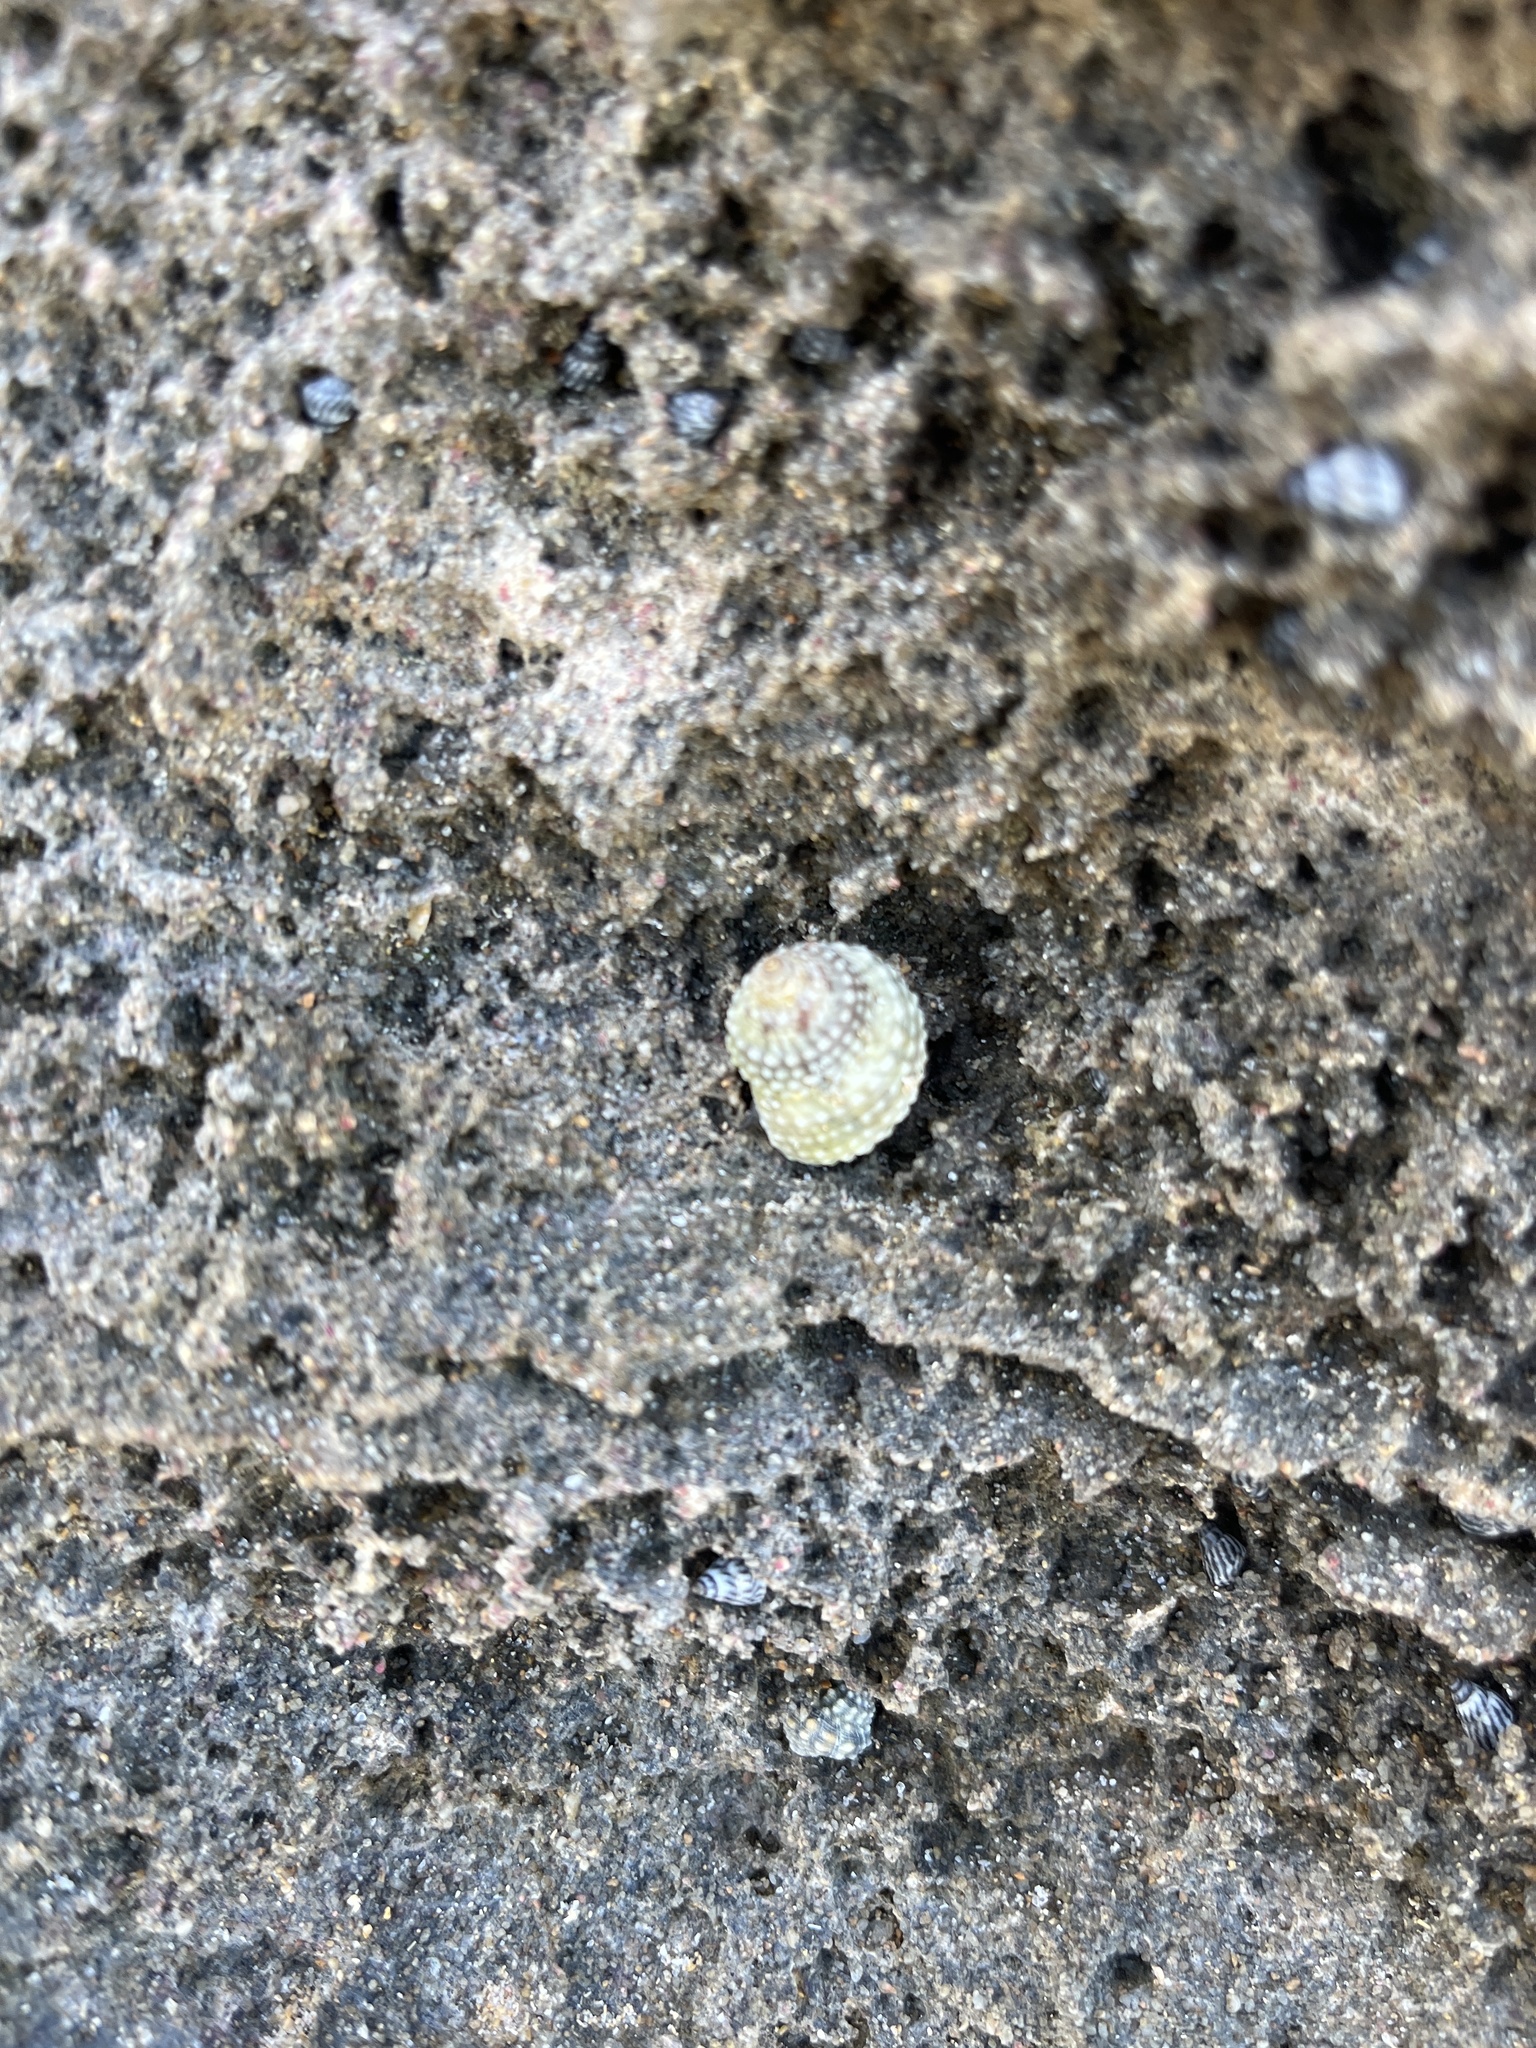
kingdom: Animalia
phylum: Mollusca
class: Gastropoda
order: Littorinimorpha
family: Littorinidae
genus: Cenchritis
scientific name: Cenchritis muricatus
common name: Beaded periwinkle
